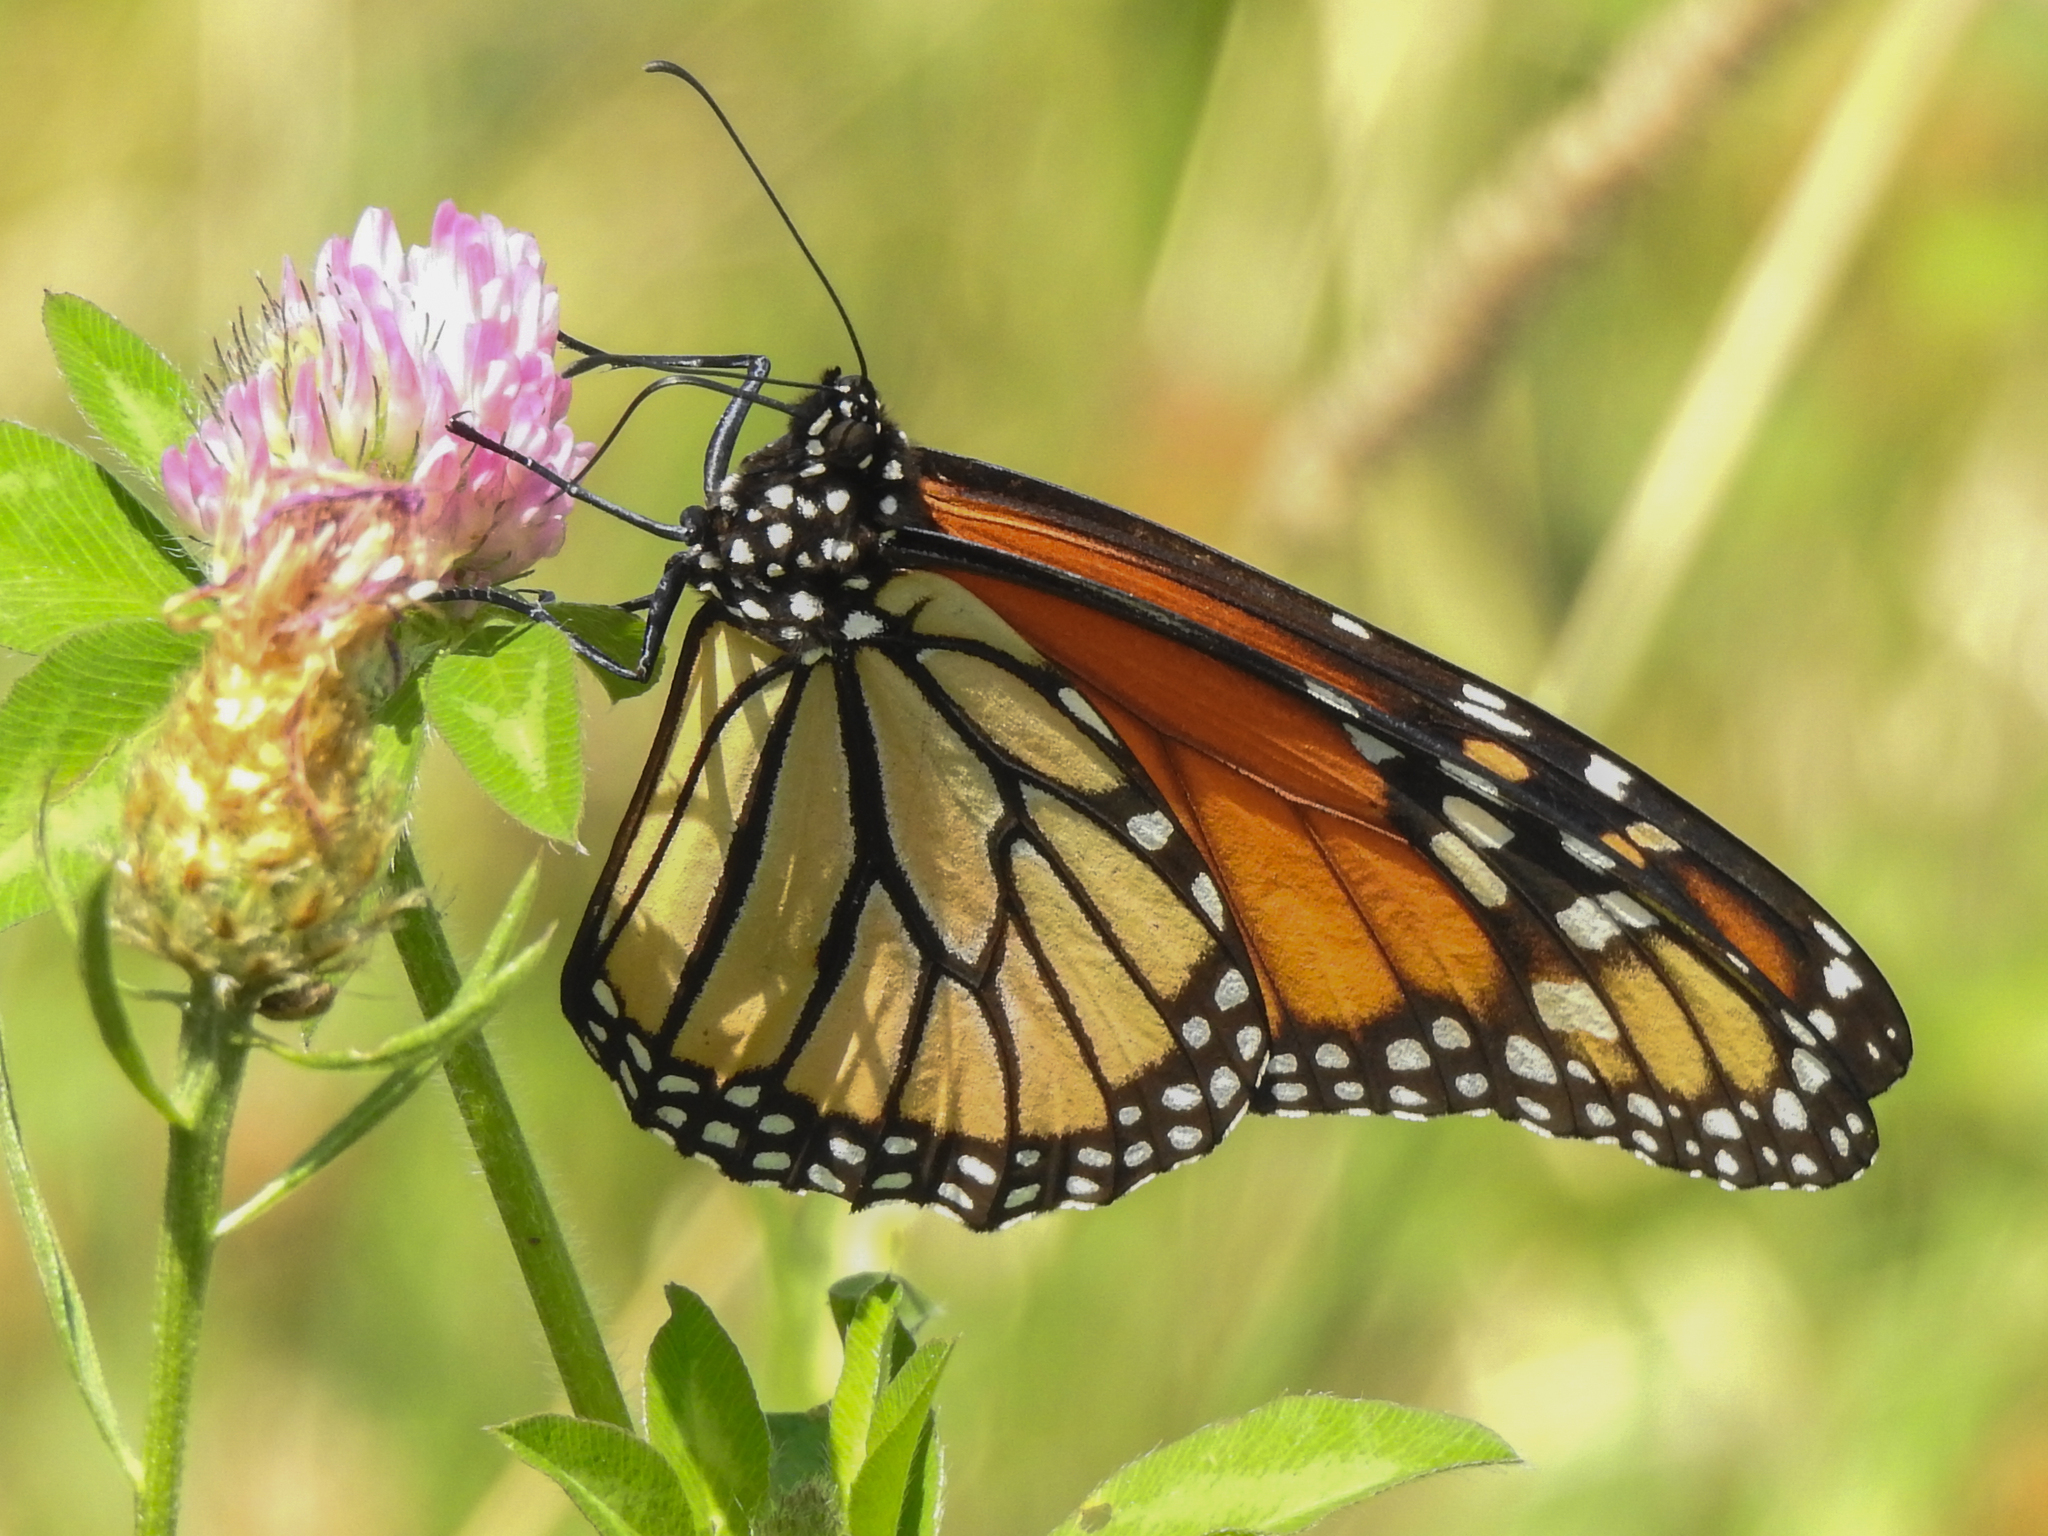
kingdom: Animalia
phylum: Arthropoda
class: Insecta
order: Lepidoptera
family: Nymphalidae
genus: Danaus
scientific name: Danaus plexippus
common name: Monarch
